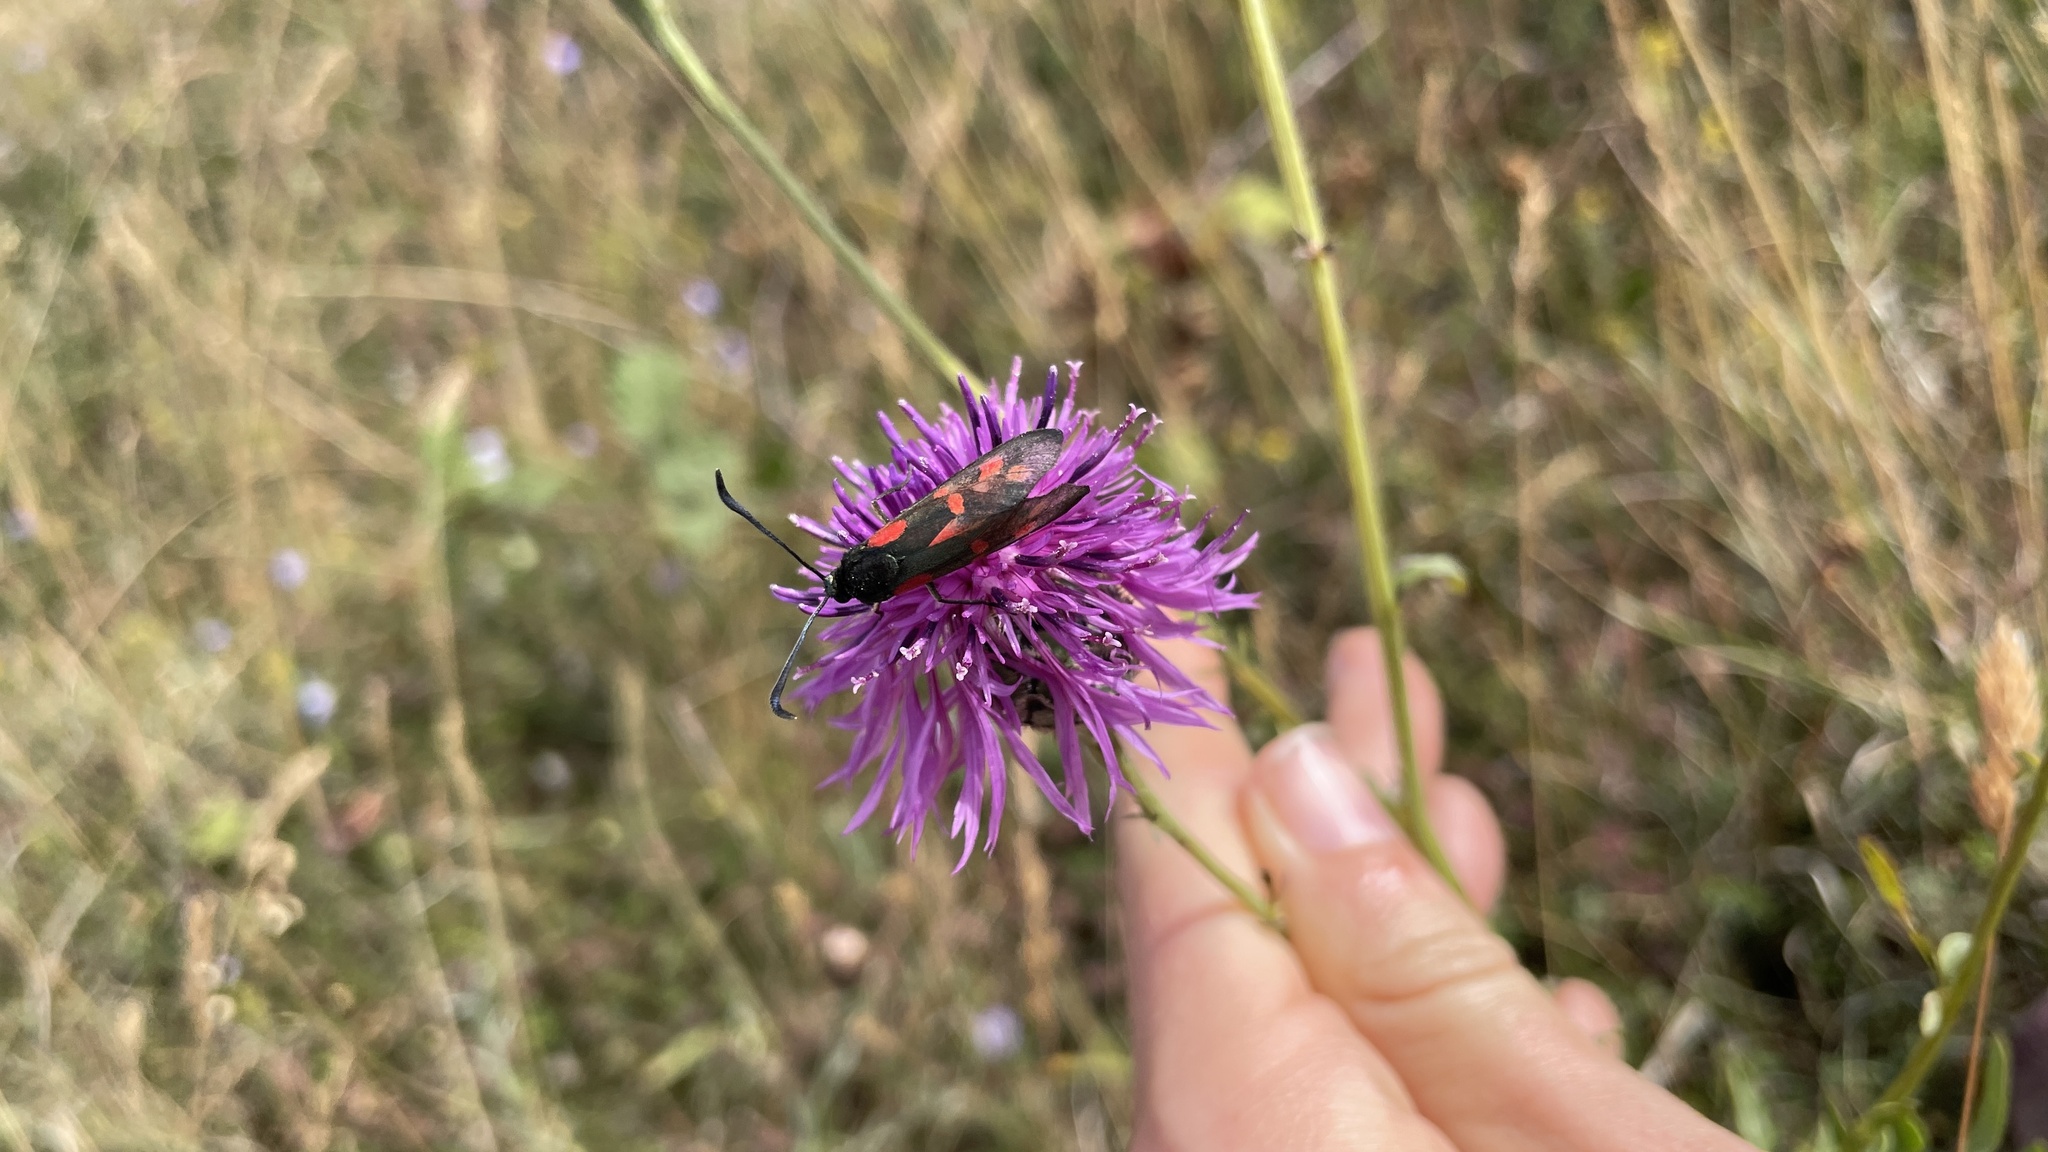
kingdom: Animalia
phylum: Arthropoda
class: Insecta
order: Lepidoptera
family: Zygaenidae
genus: Zygaena
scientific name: Zygaena filipendulae
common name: Six-spot burnet
